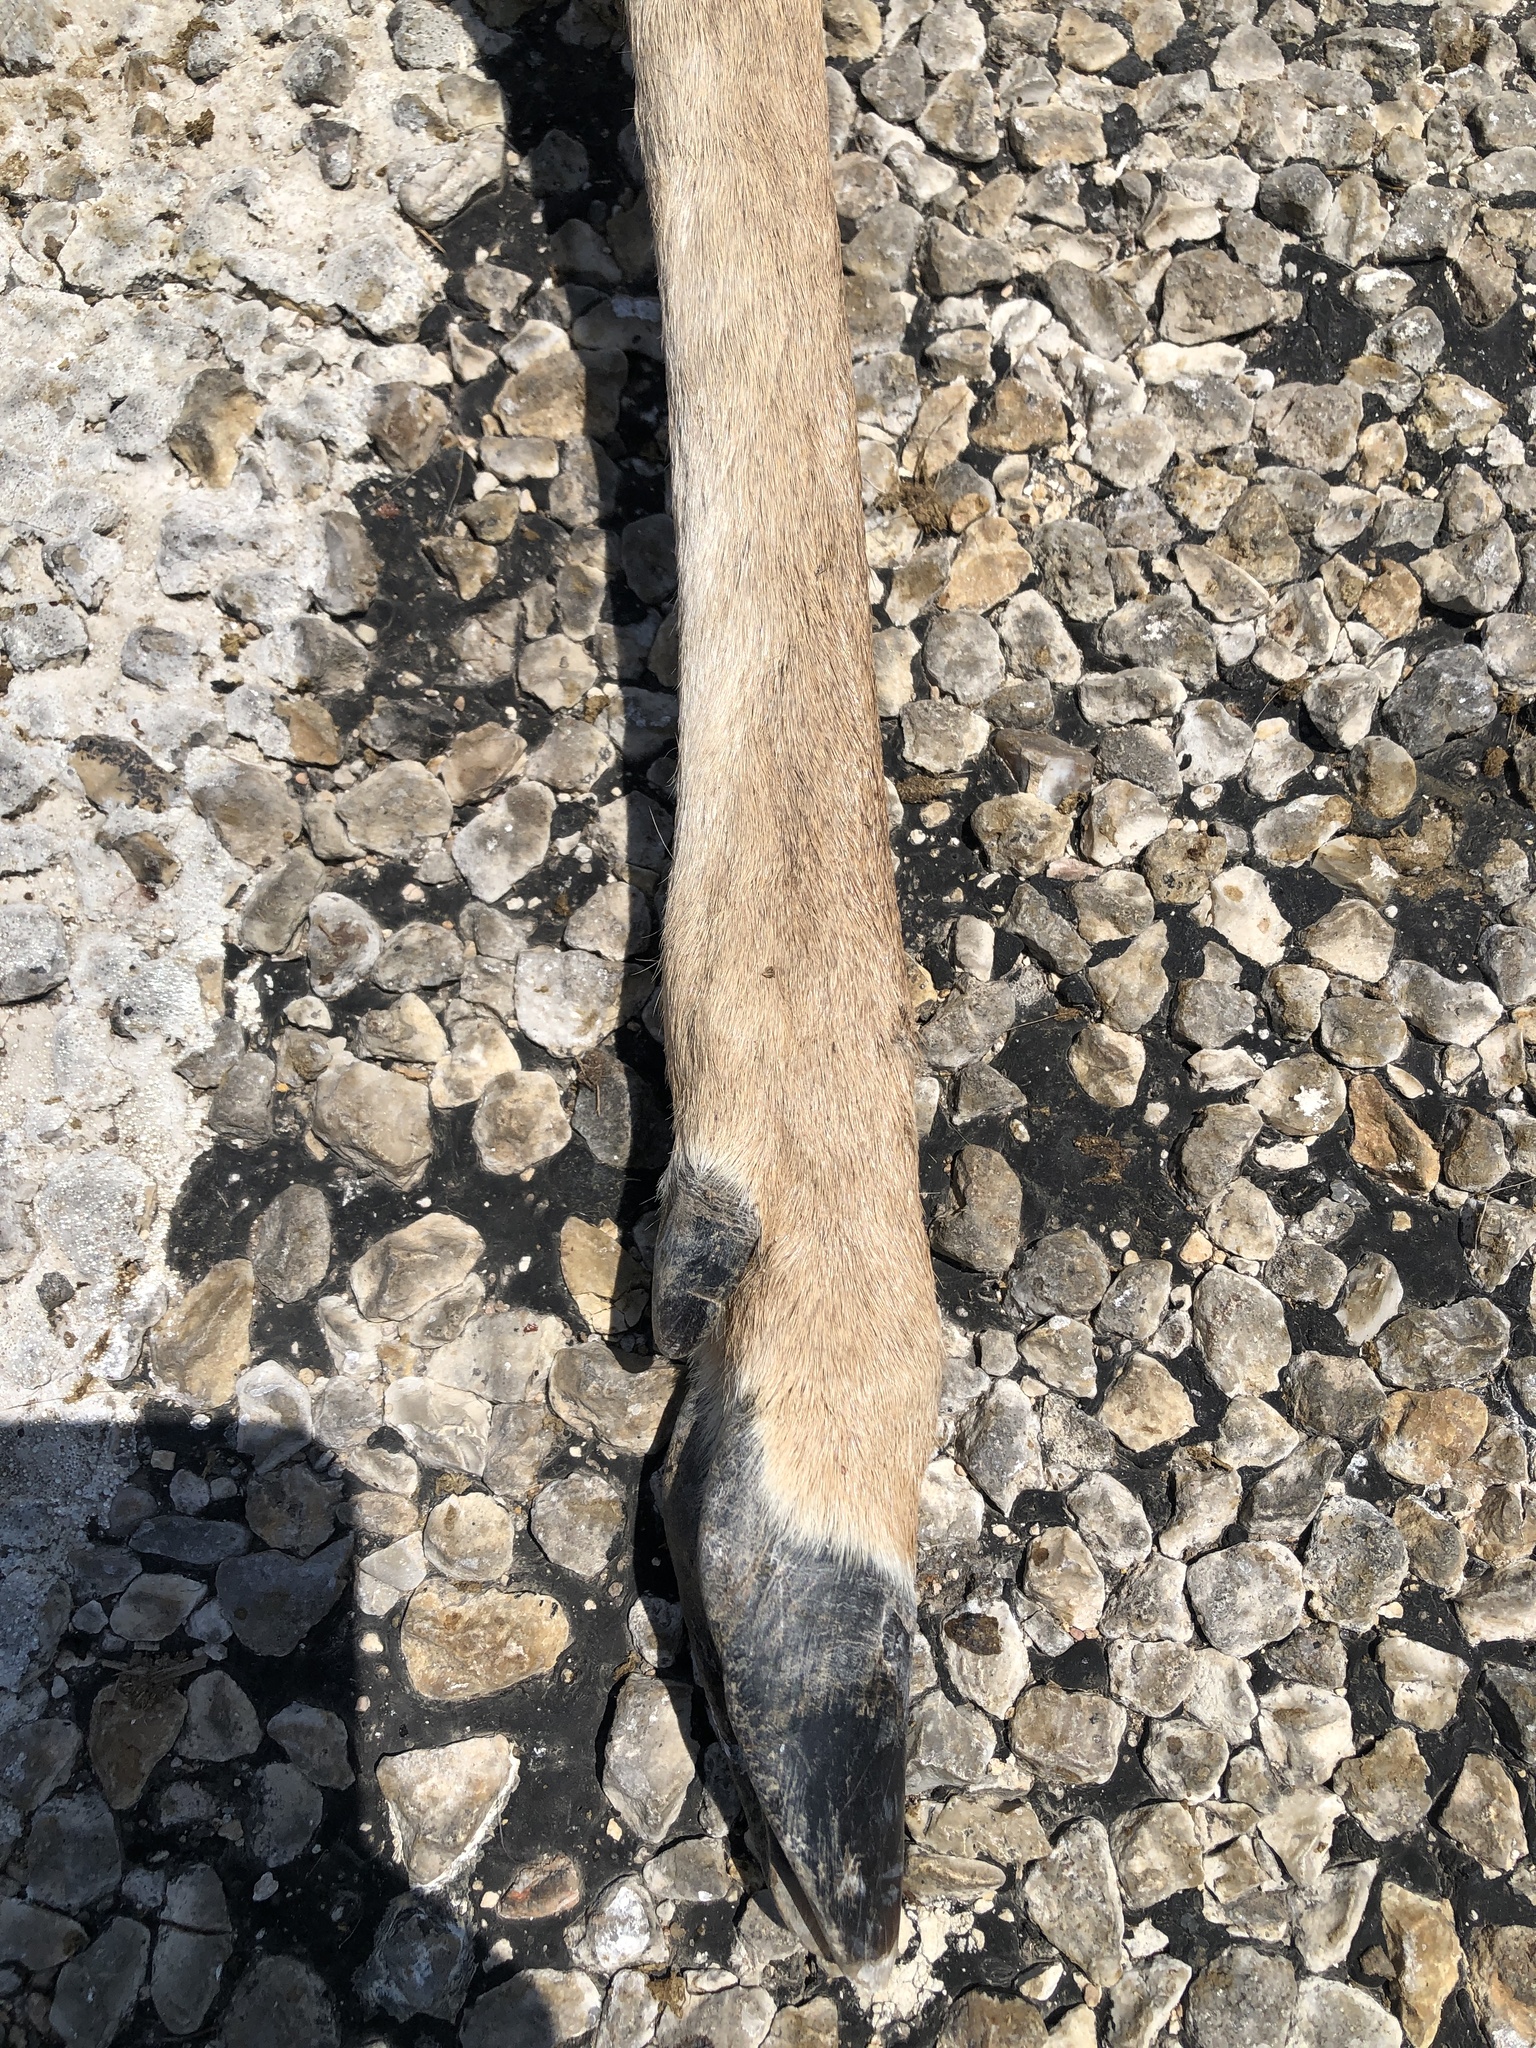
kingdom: Animalia
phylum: Chordata
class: Mammalia
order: Artiodactyla
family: Cervidae
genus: Odocoileus
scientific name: Odocoileus virginianus
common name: White-tailed deer
